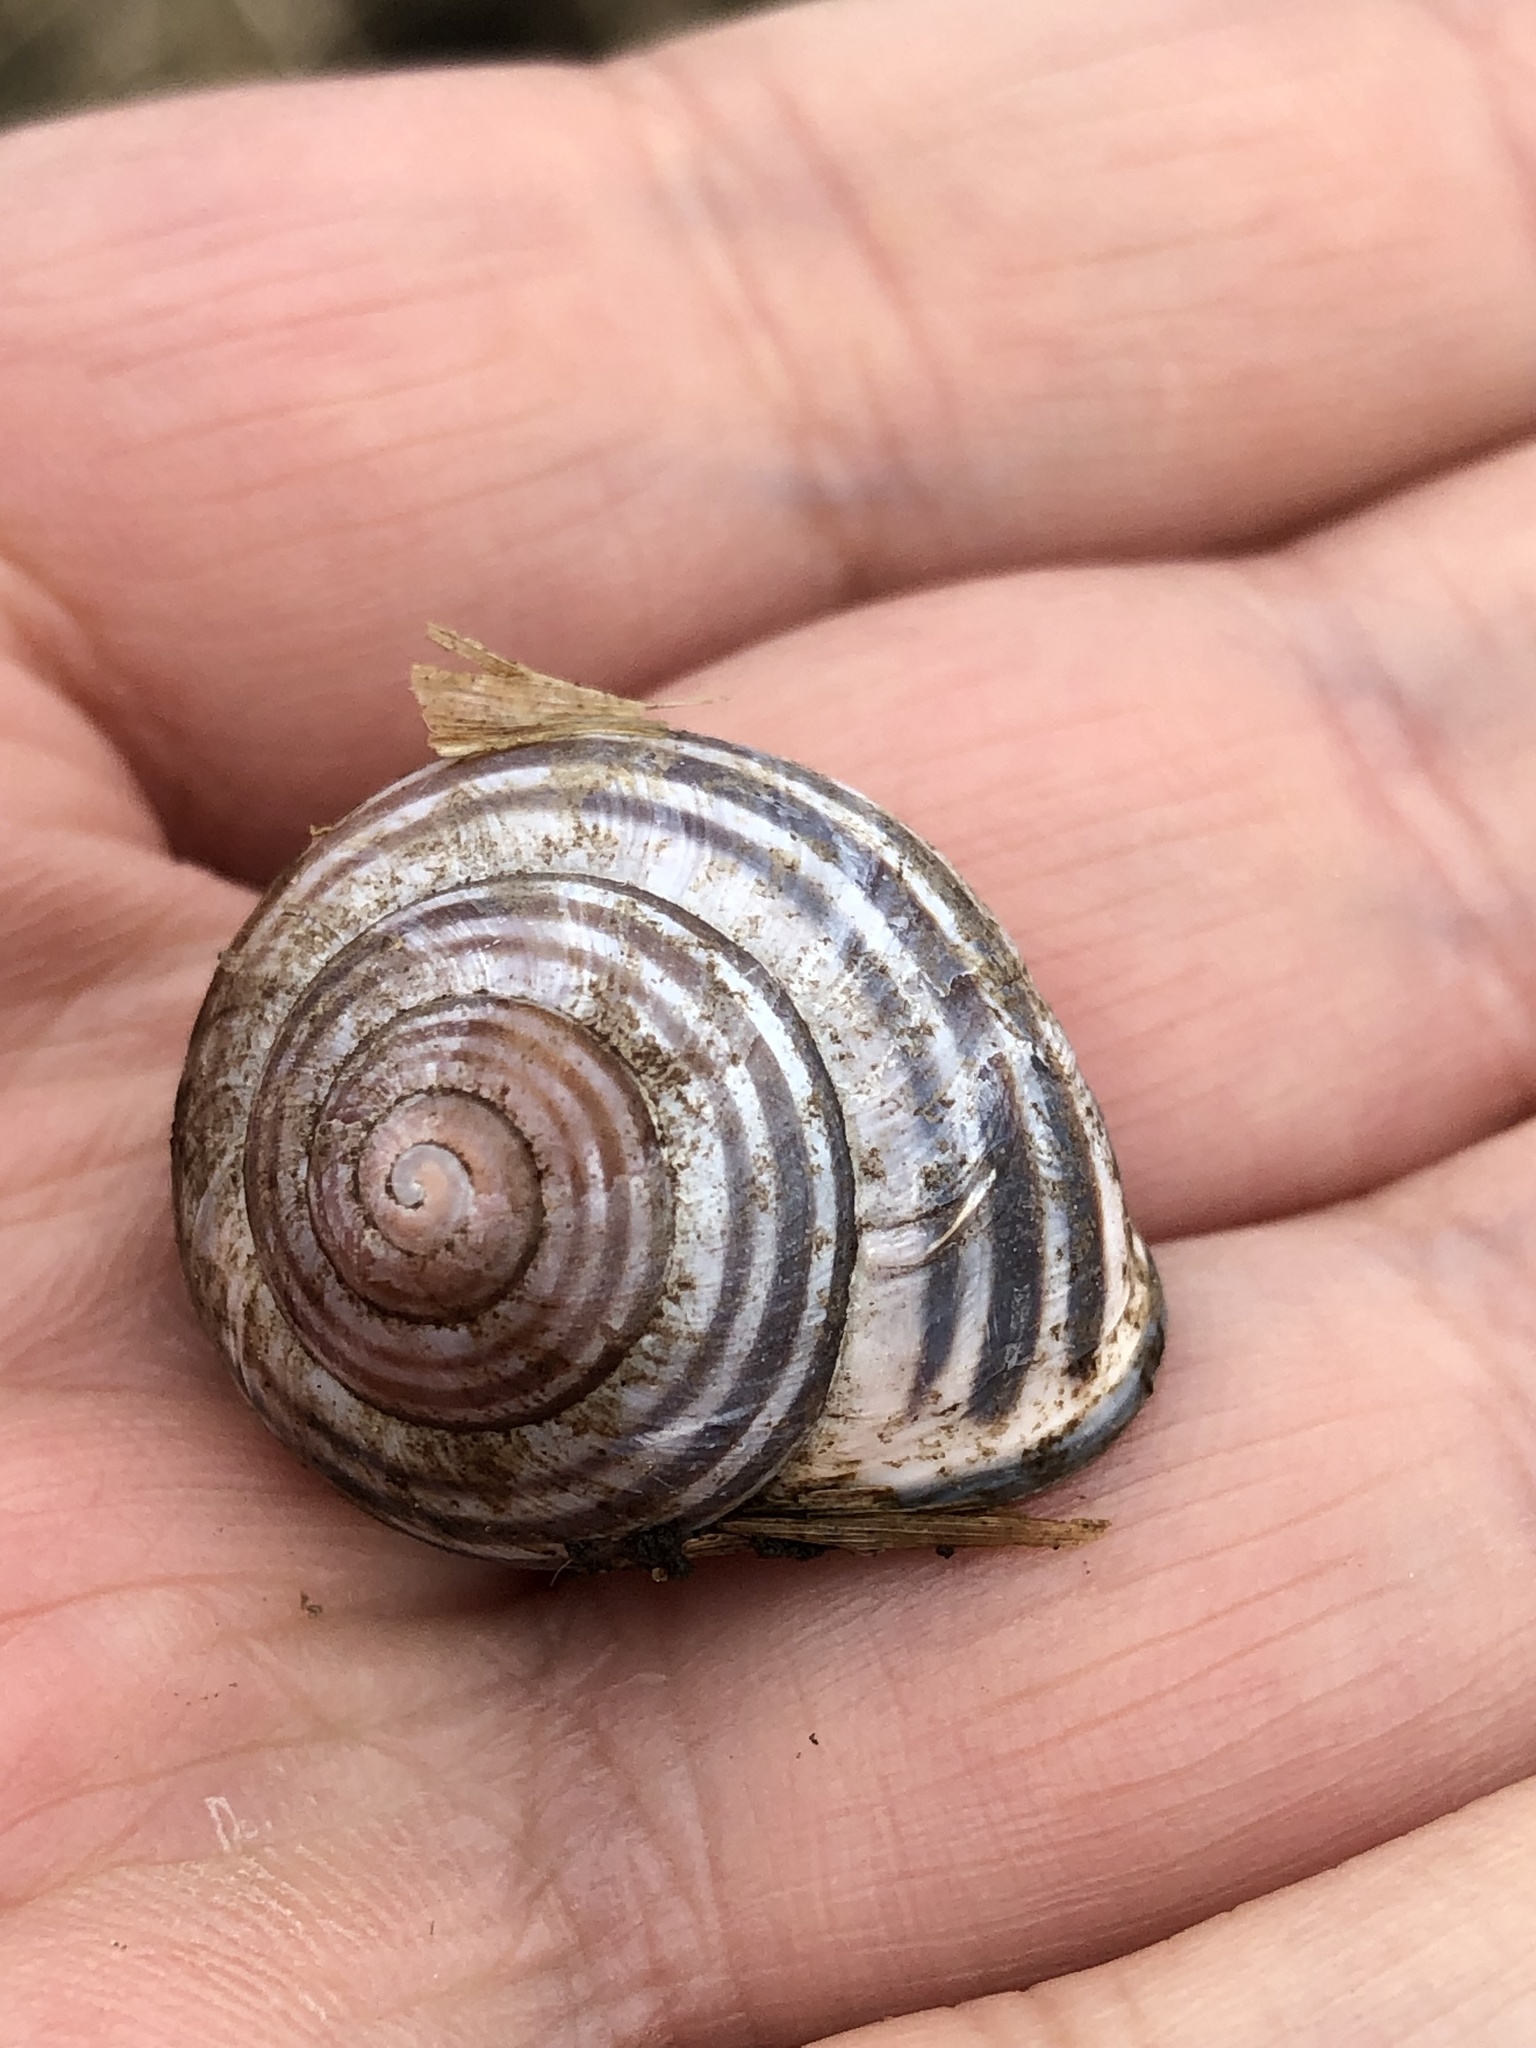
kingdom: Animalia
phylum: Mollusca
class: Gastropoda
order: Stylommatophora
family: Helicidae
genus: Cepaea
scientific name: Cepaea nemoralis
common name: Grovesnail
